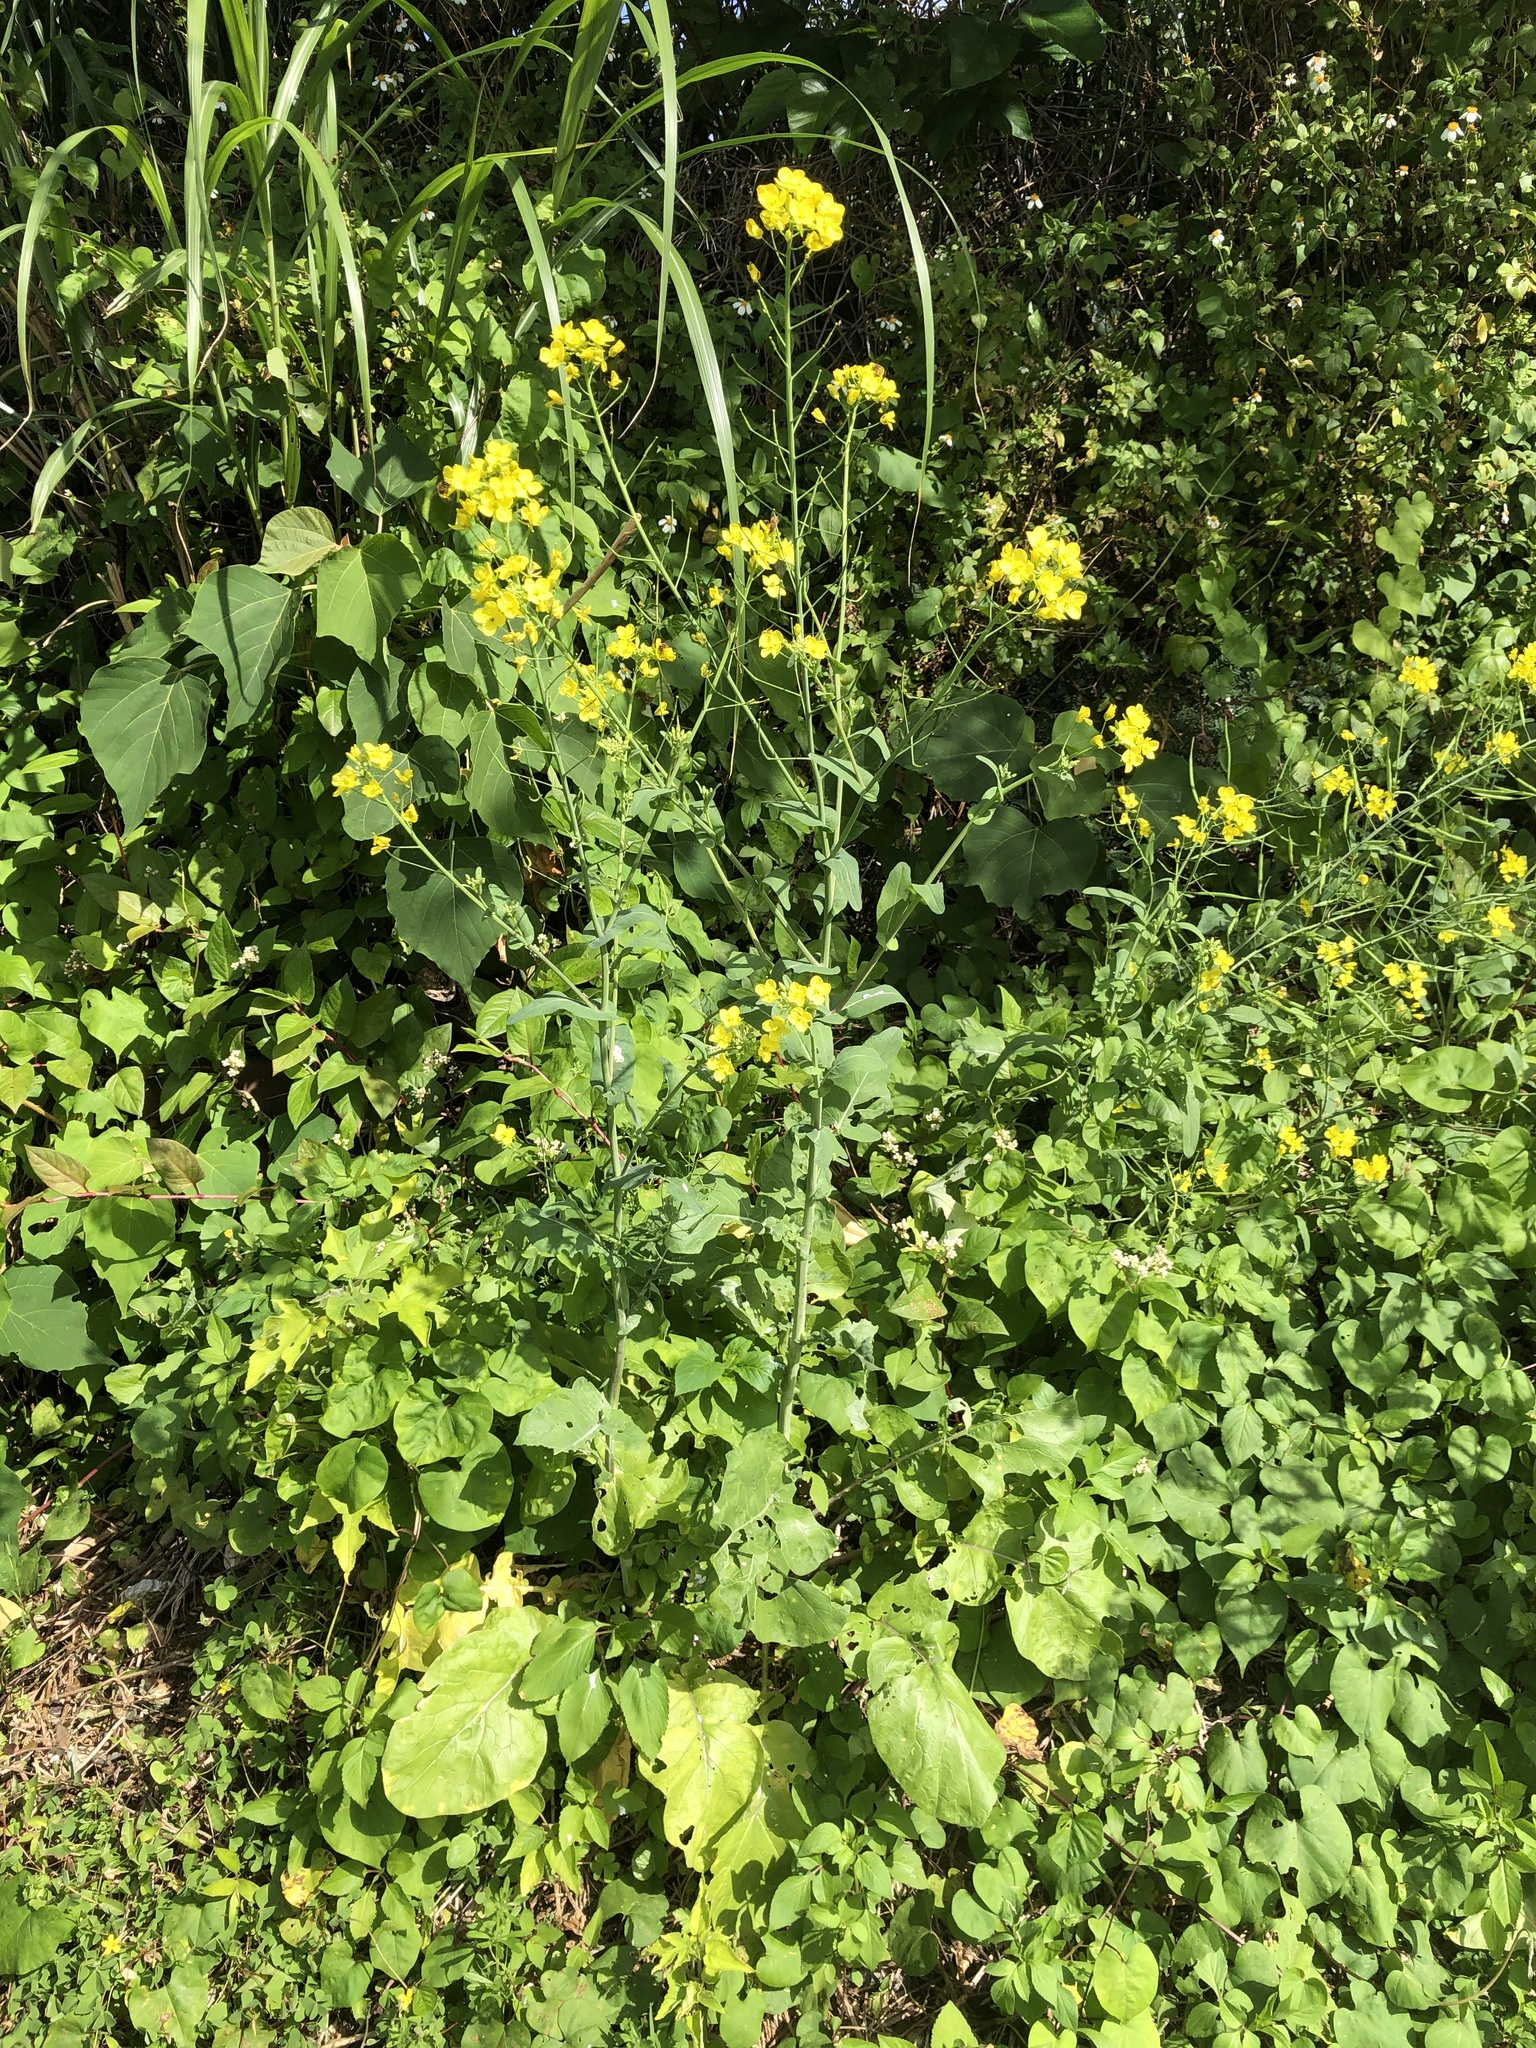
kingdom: Plantae
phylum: Tracheophyta
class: Magnoliopsida
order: Brassicales
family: Brassicaceae
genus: Brassica
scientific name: Brassica napus
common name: Rape
